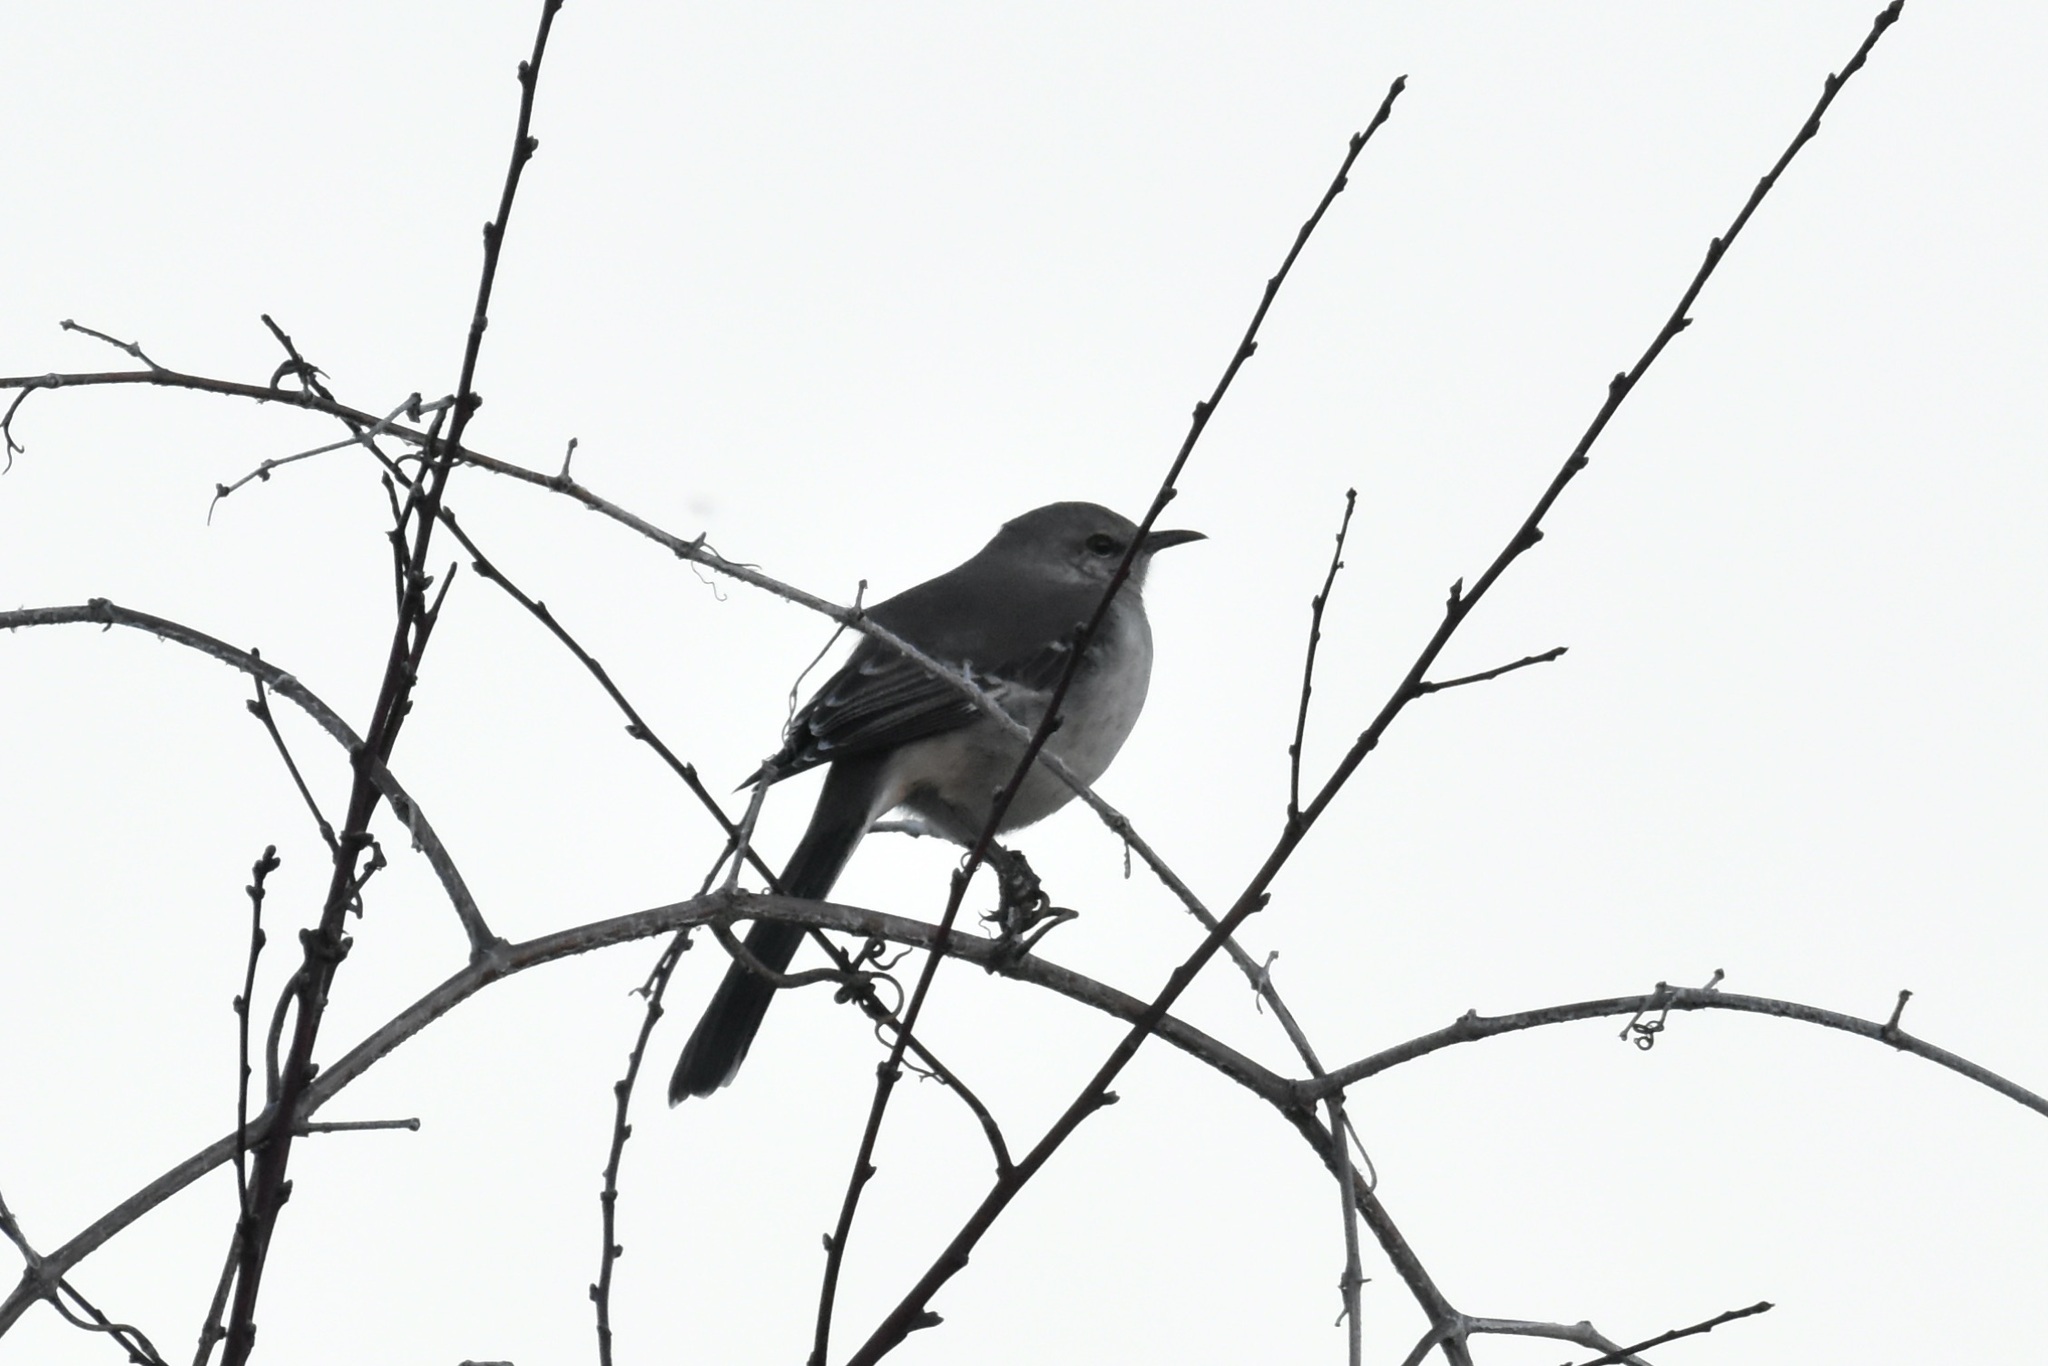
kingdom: Animalia
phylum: Chordata
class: Aves
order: Passeriformes
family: Mimidae
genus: Mimus
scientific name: Mimus polyglottos
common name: Northern mockingbird
